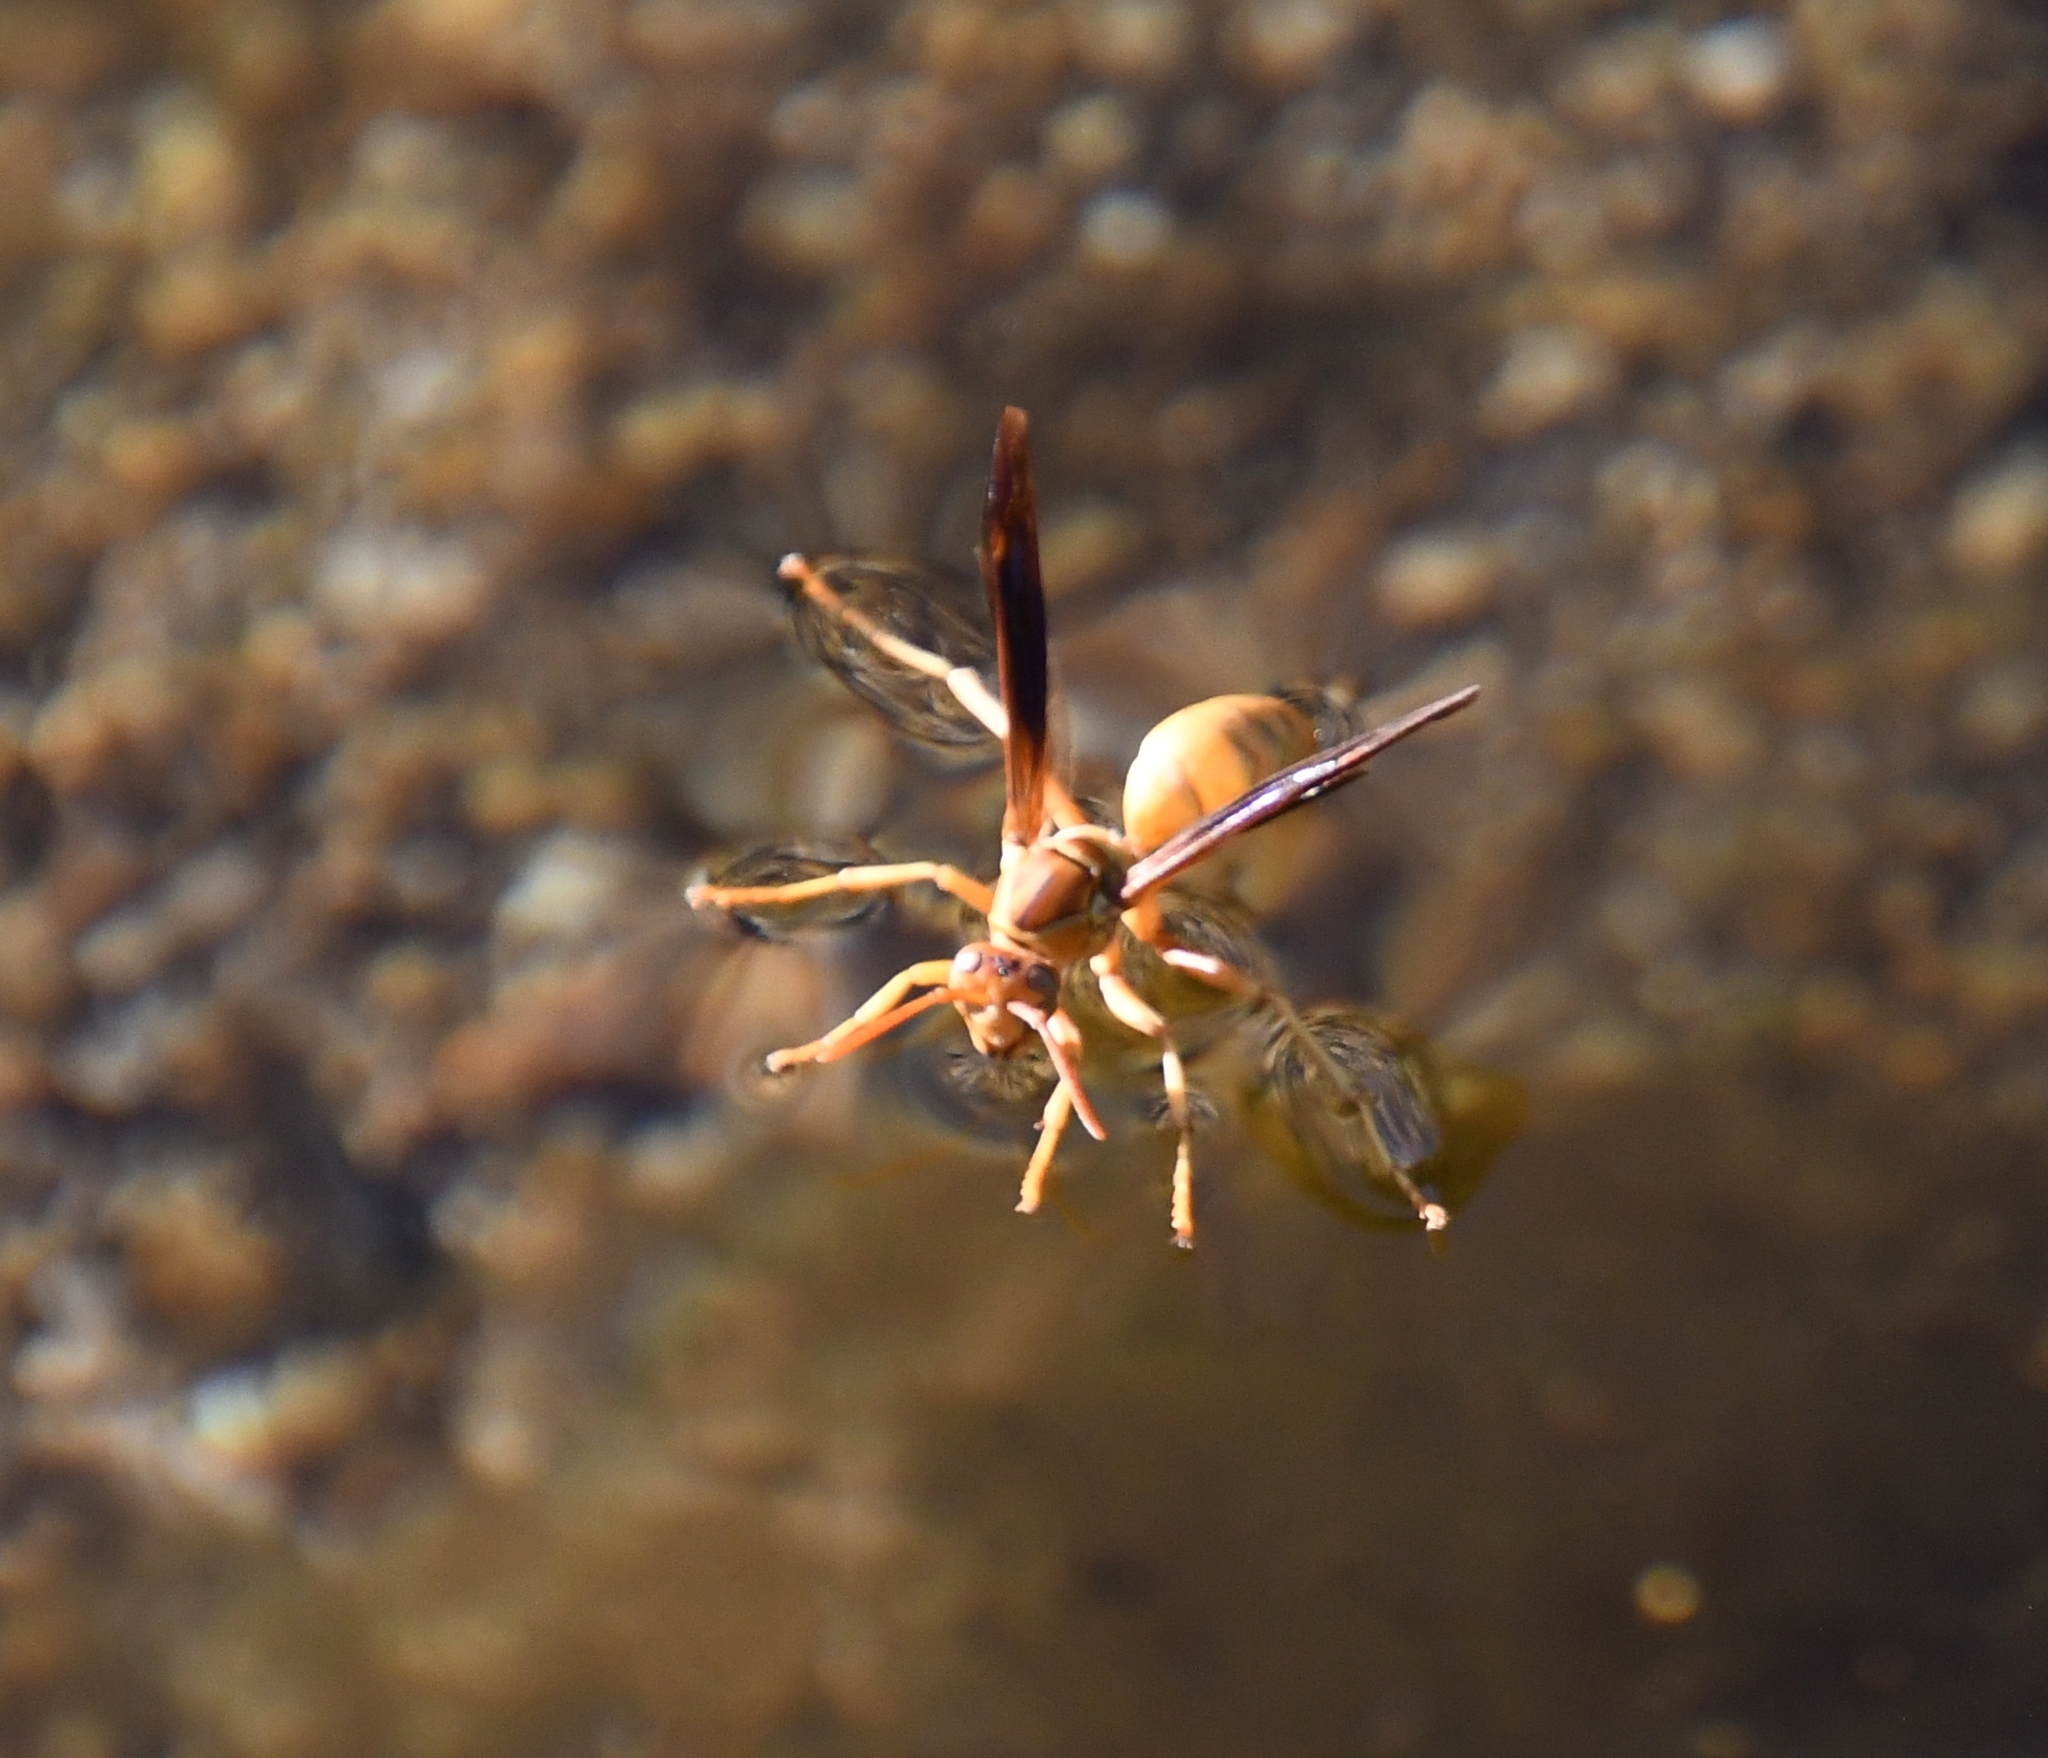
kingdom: Animalia
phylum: Arthropoda
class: Insecta
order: Hymenoptera
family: Eumenidae
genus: Polistes
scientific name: Polistes flavus
